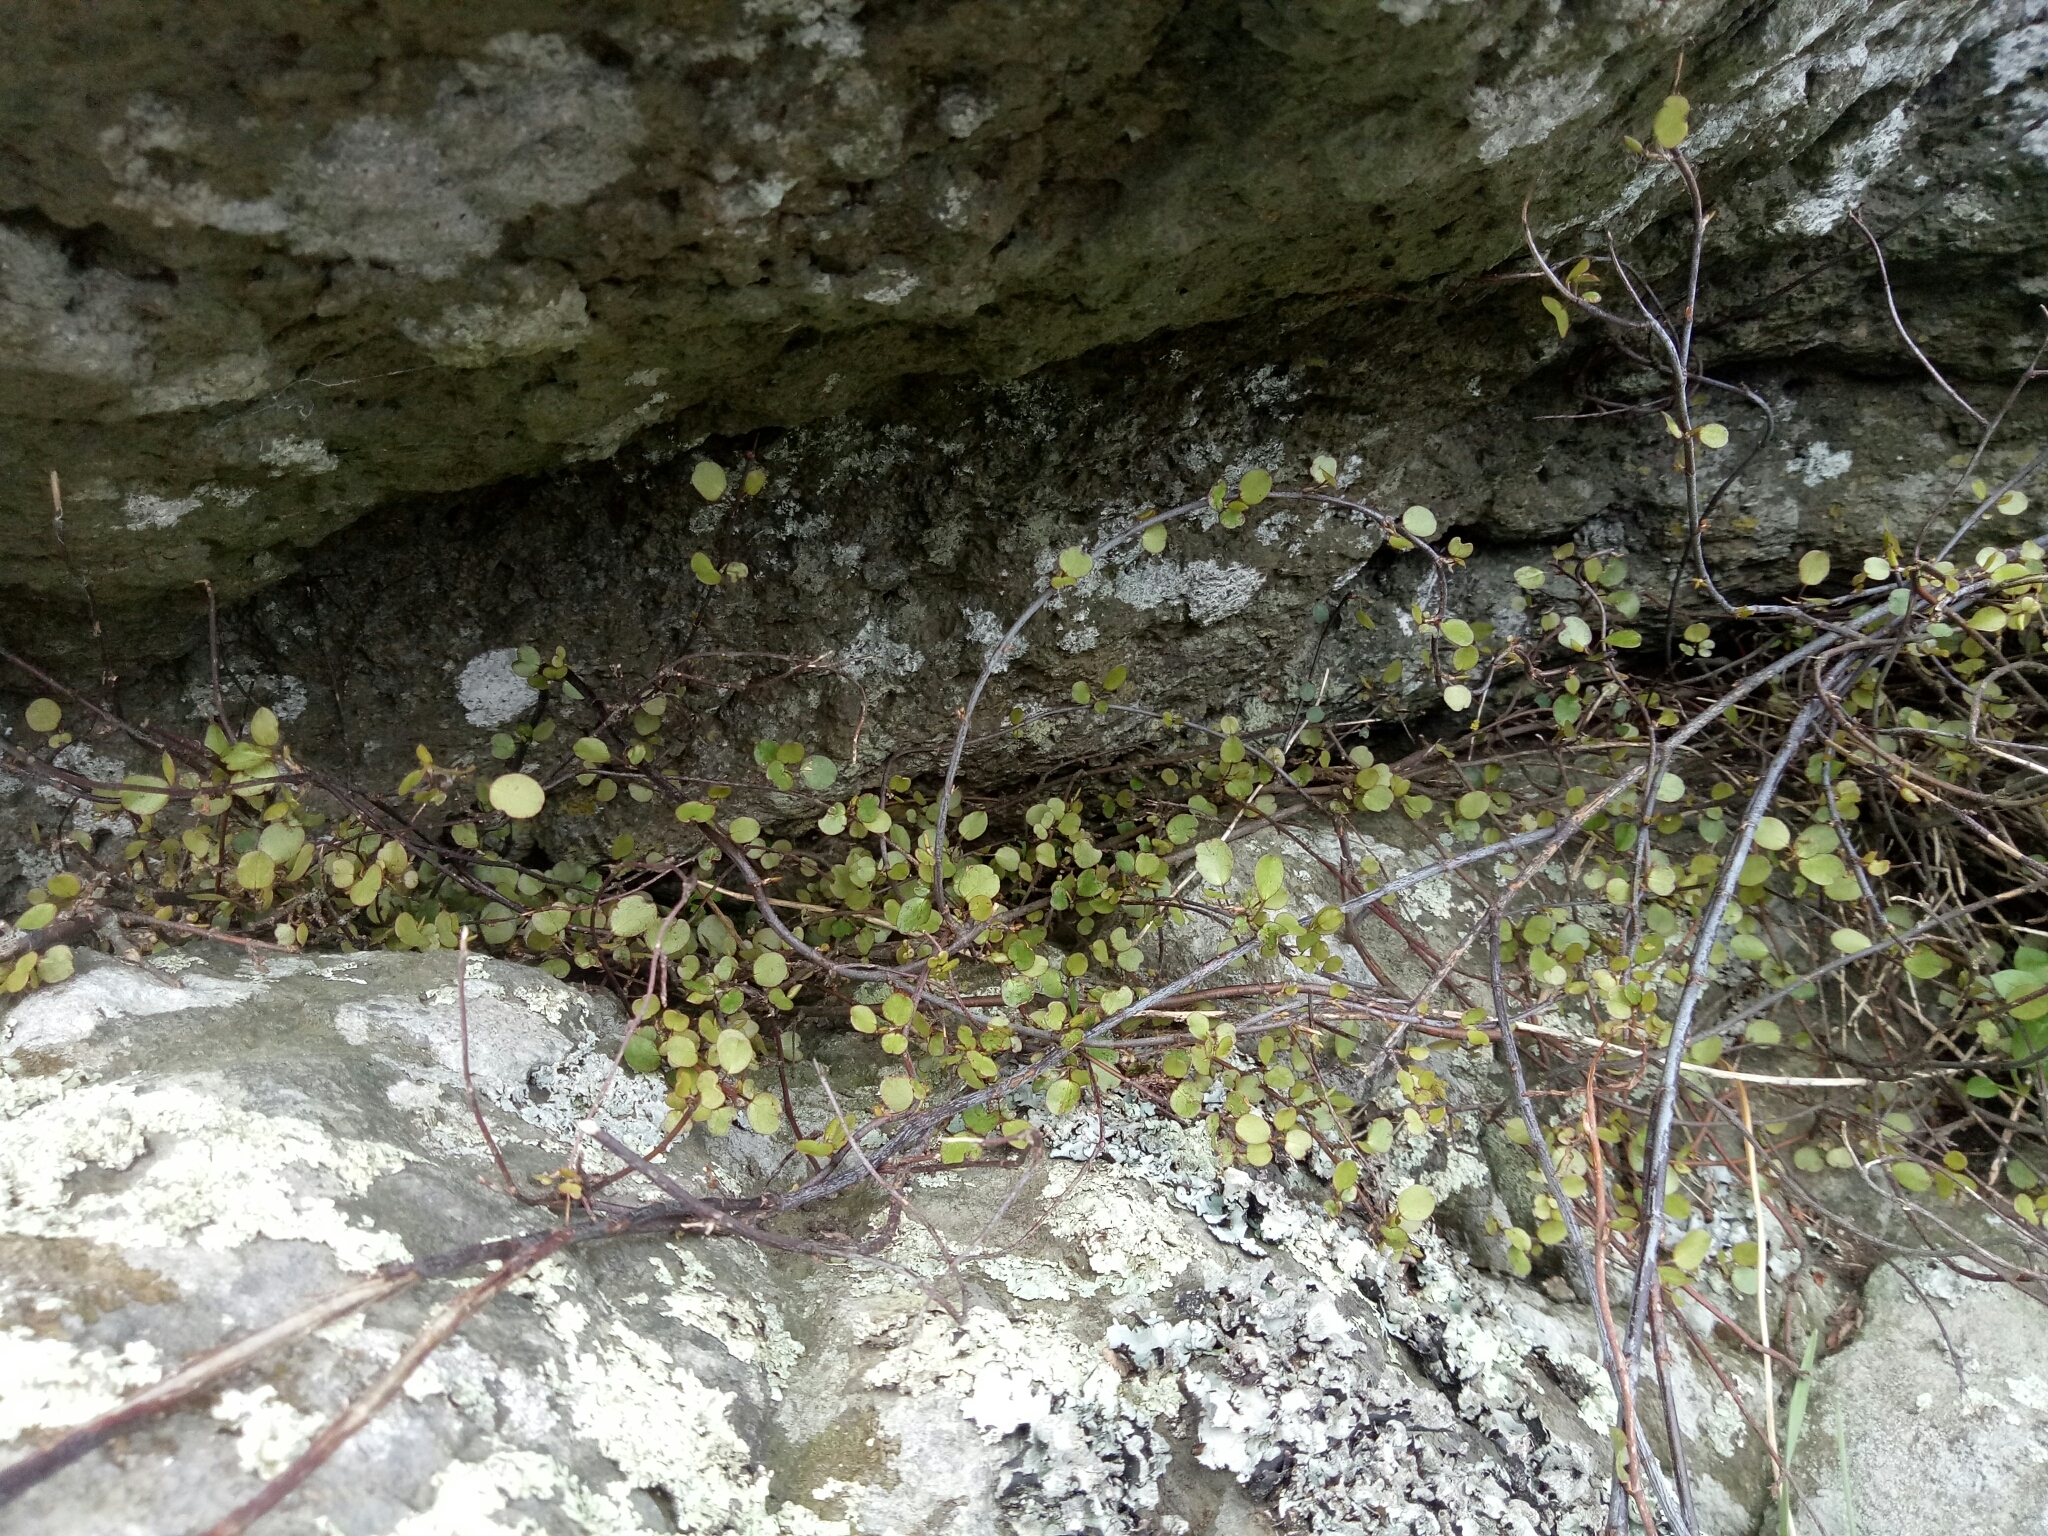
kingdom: Plantae
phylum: Tracheophyta
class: Magnoliopsida
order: Caryophyllales
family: Polygonaceae
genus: Muehlenbeckia
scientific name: Muehlenbeckia complexa
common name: Wireplant
